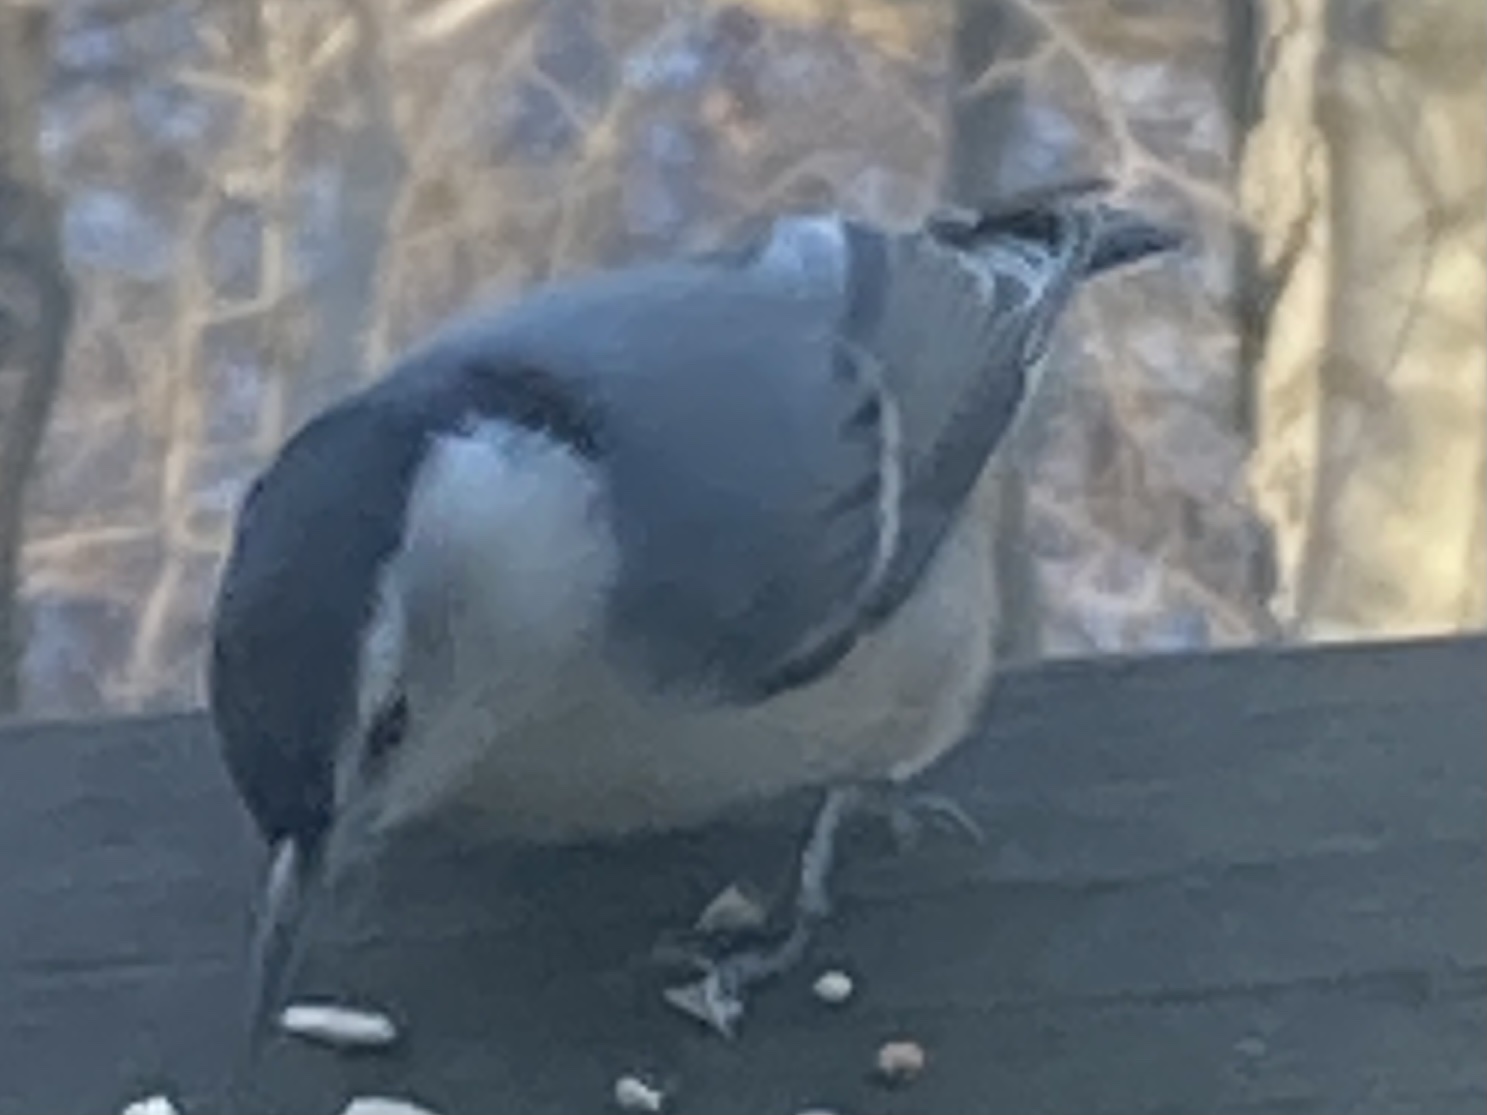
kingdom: Animalia
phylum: Chordata
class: Aves
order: Passeriformes
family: Sittidae
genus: Sitta
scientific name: Sitta carolinensis
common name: White-breasted nuthatch
